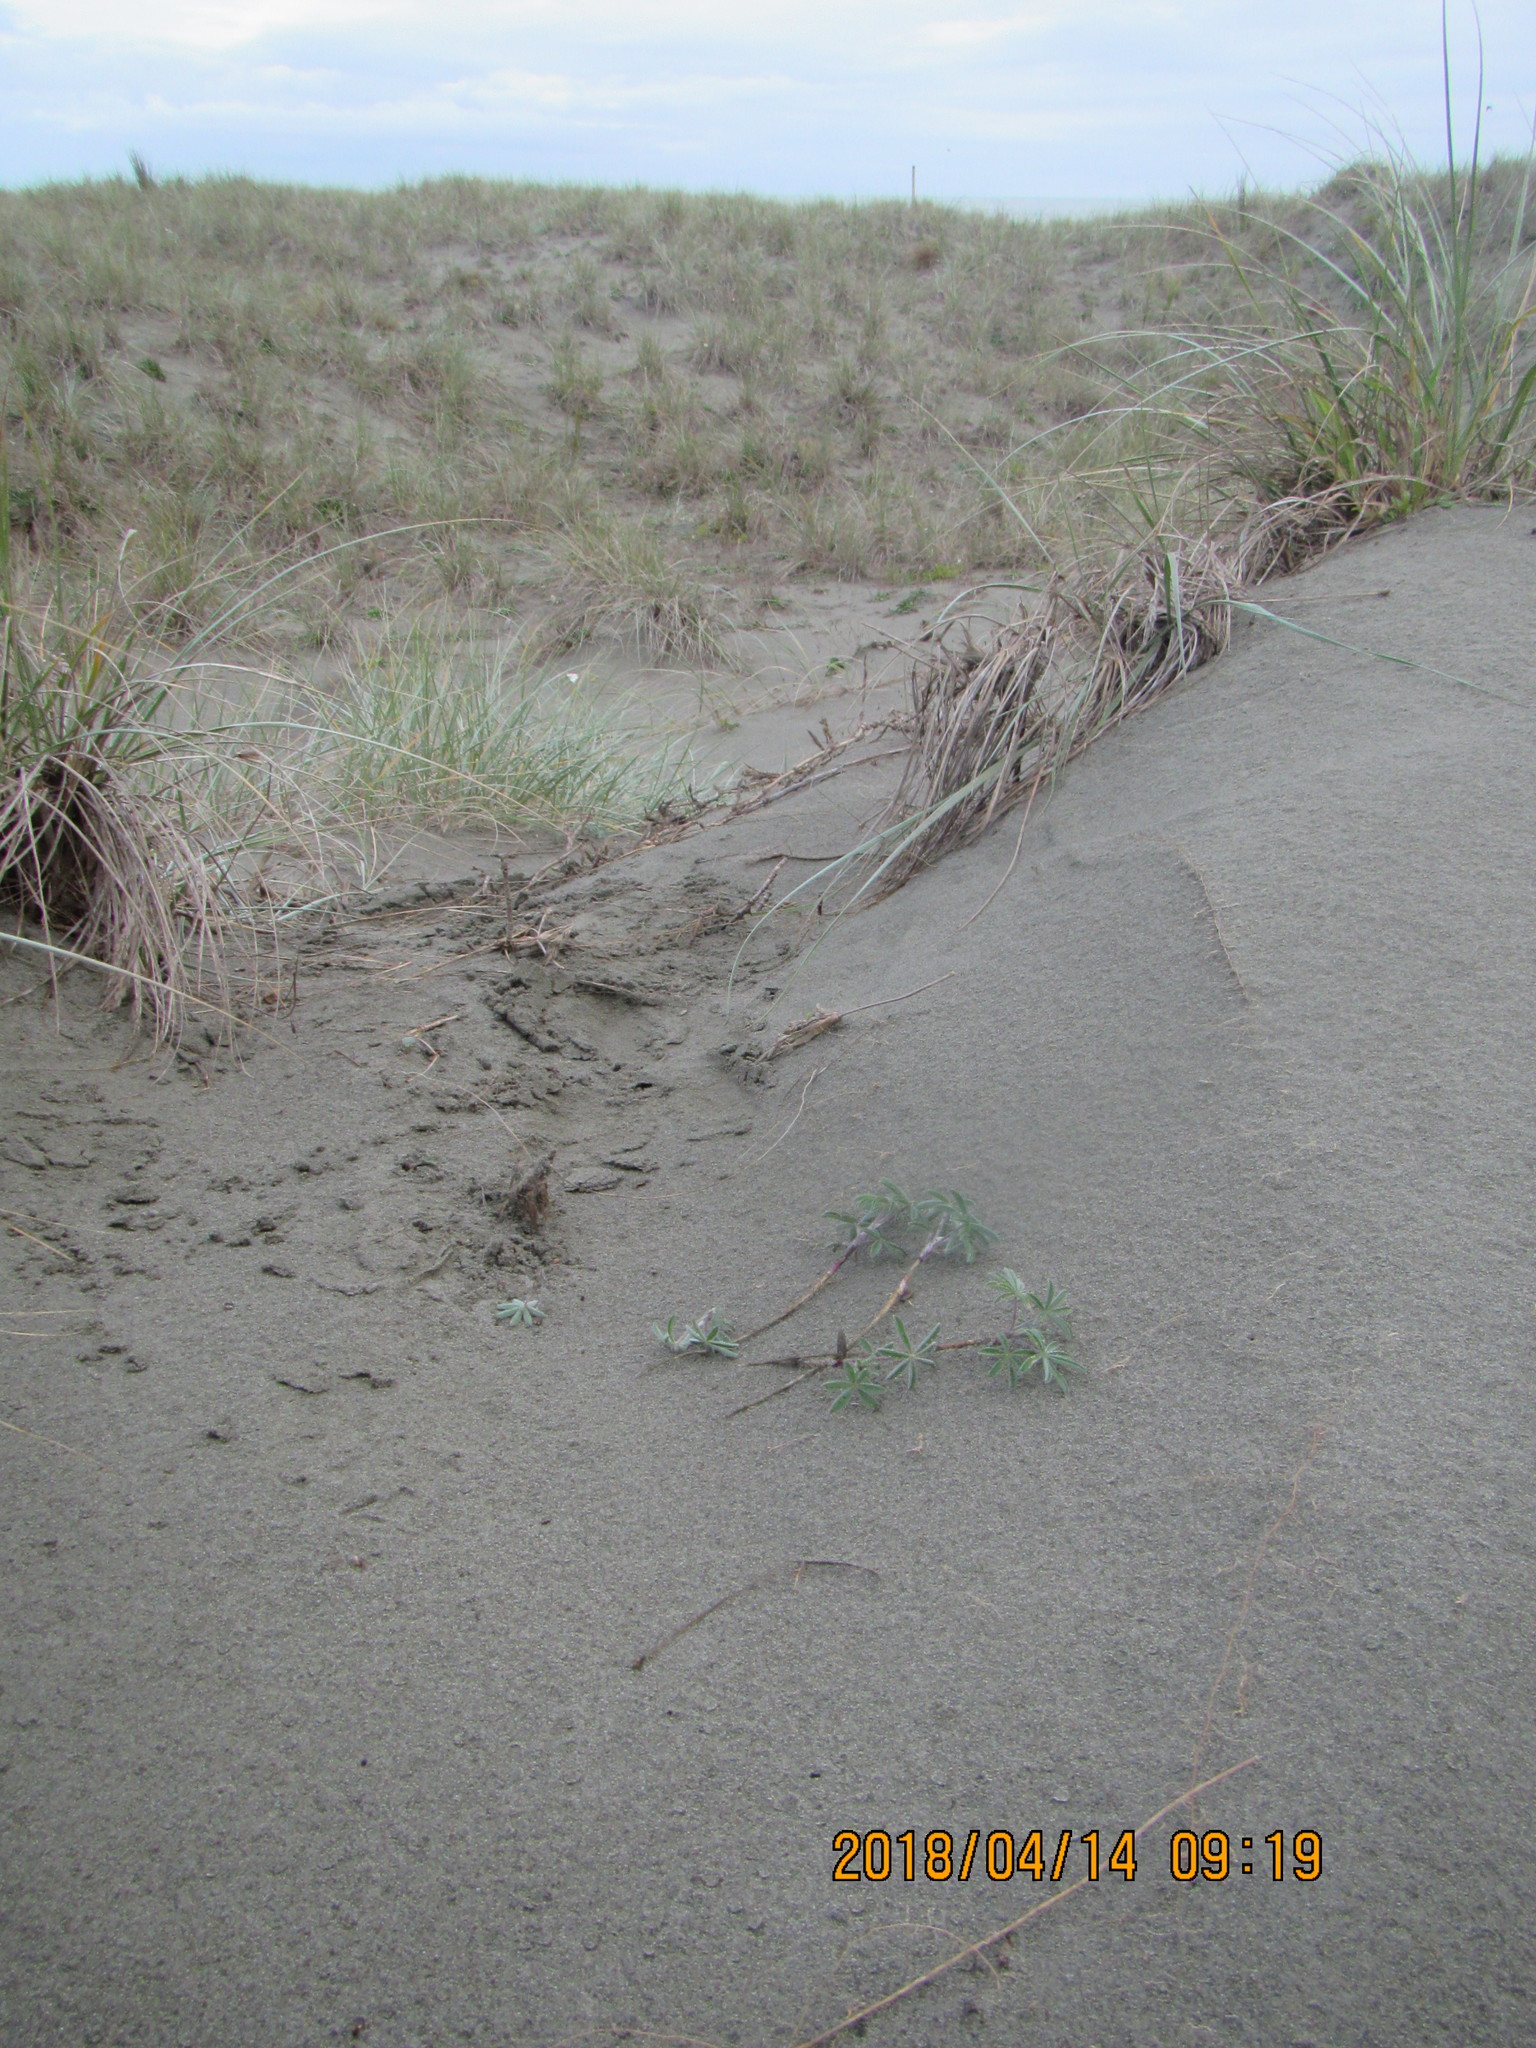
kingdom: Plantae
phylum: Tracheophyta
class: Magnoliopsida
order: Fabales
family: Fabaceae
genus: Lupinus
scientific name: Lupinus arboreus
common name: Yellow bush lupine
